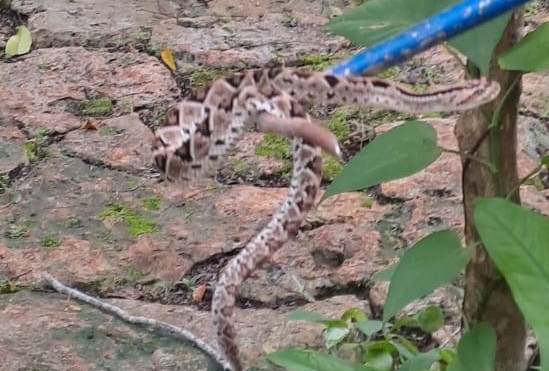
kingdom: Animalia
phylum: Chordata
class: Squamata
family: Viperidae
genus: Crotalus
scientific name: Crotalus tzabcan
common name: Yucatan neotropical rattlesnake
